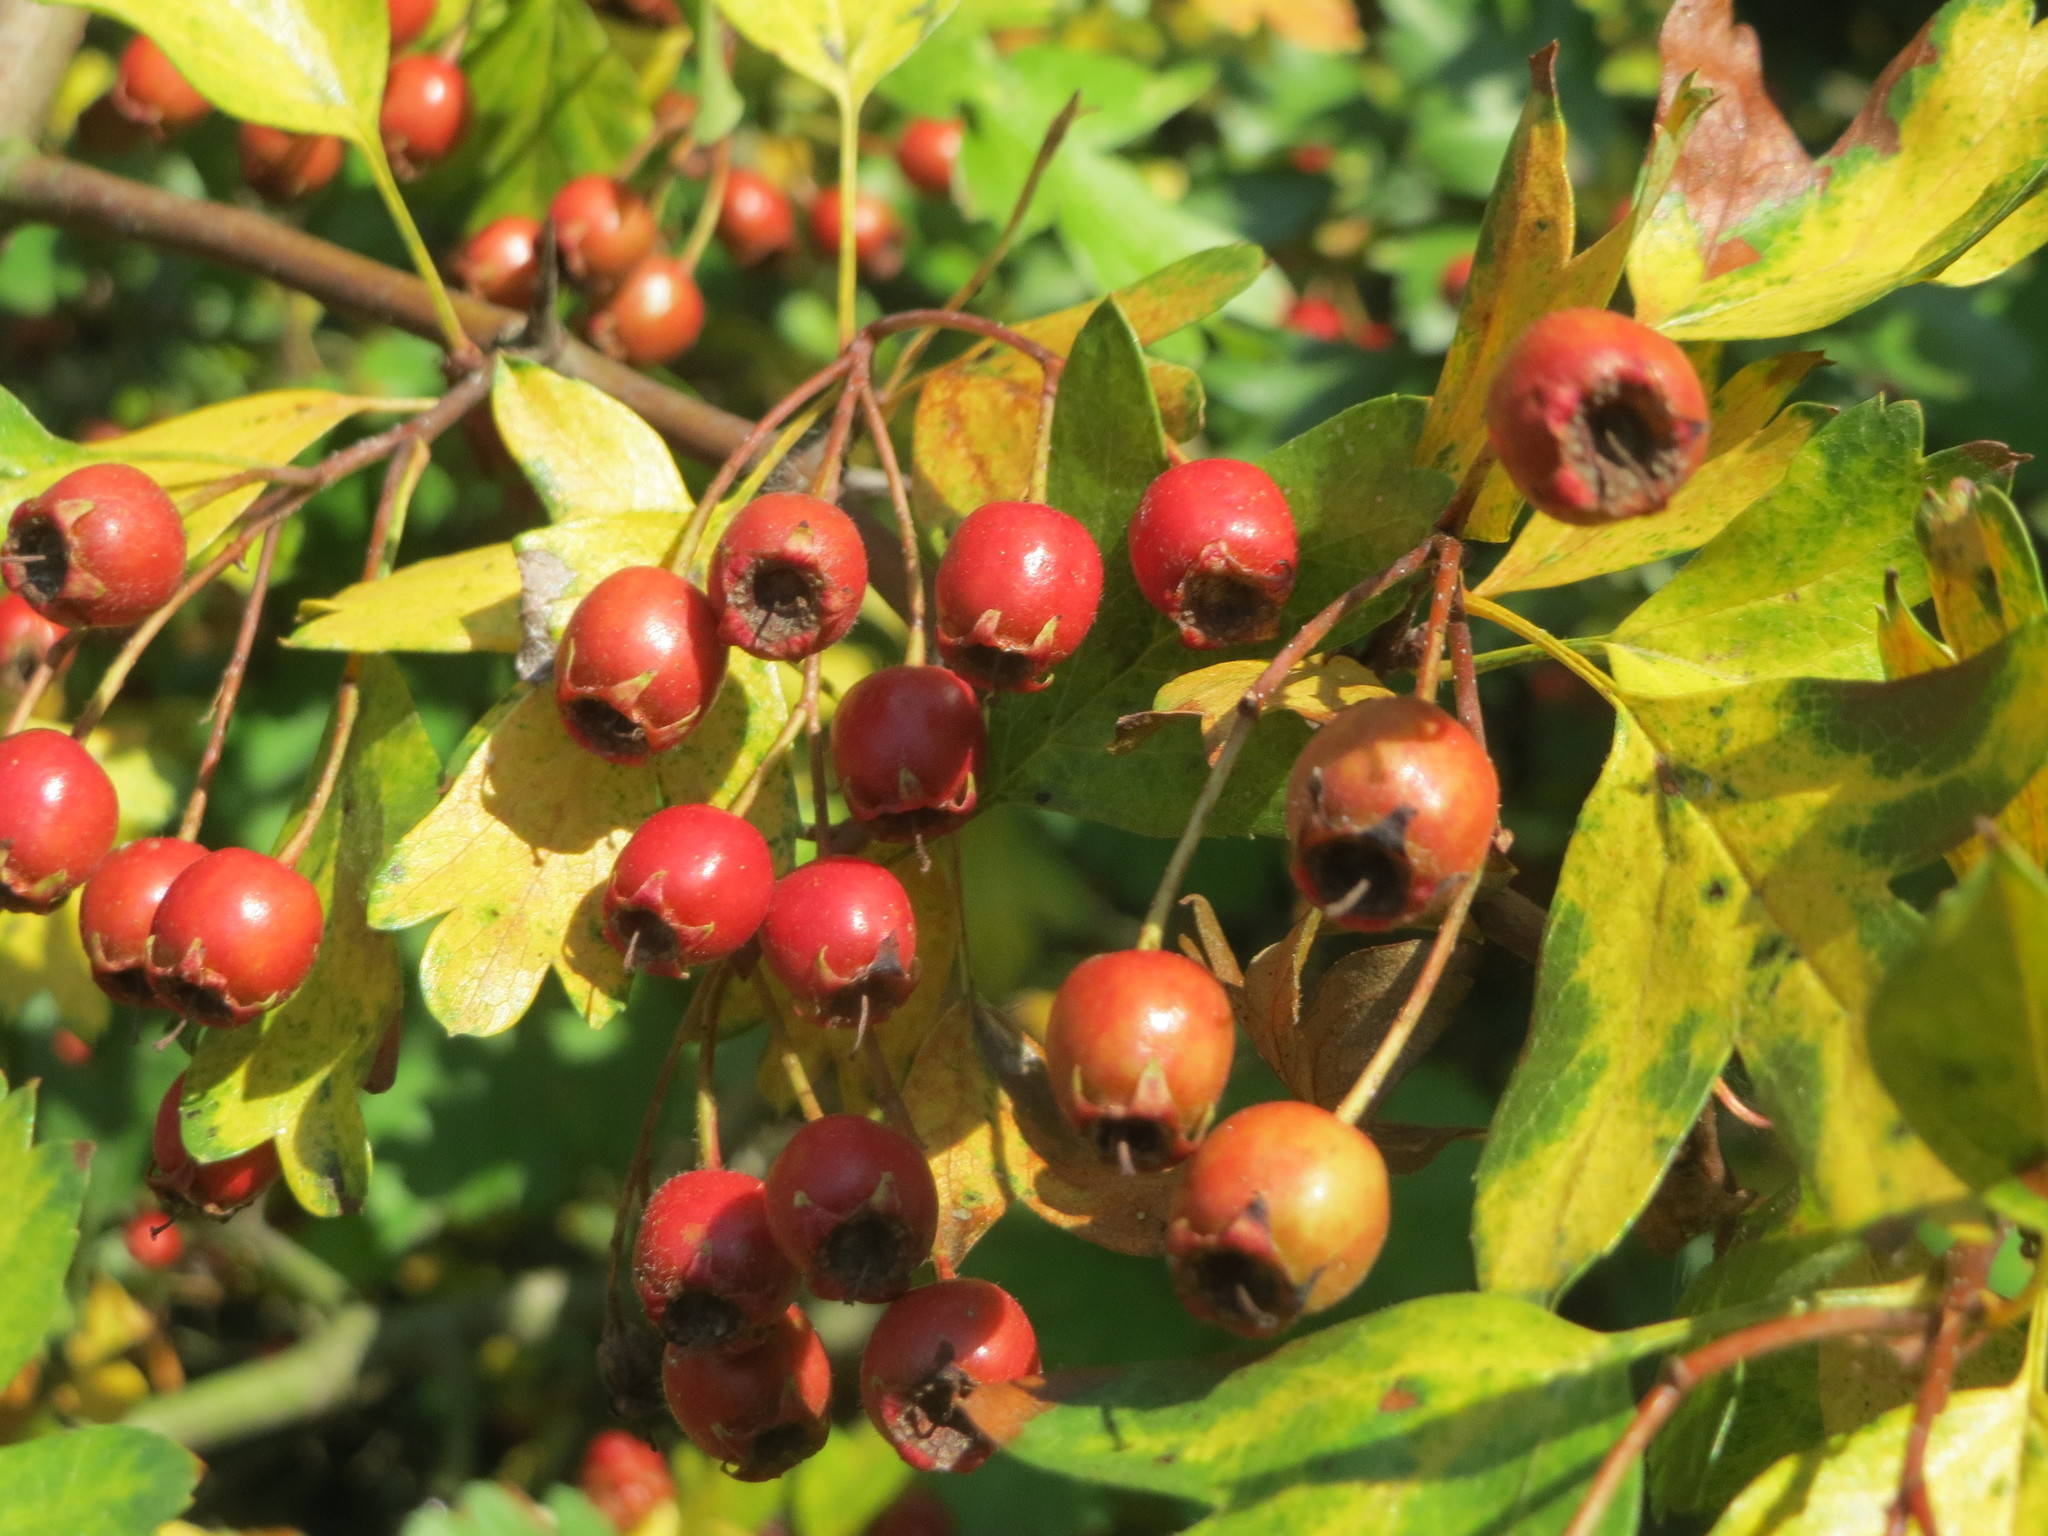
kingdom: Plantae
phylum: Tracheophyta
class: Magnoliopsida
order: Rosales
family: Rosaceae
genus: Crataegus
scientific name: Crataegus monogyna
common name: Hawthorn
